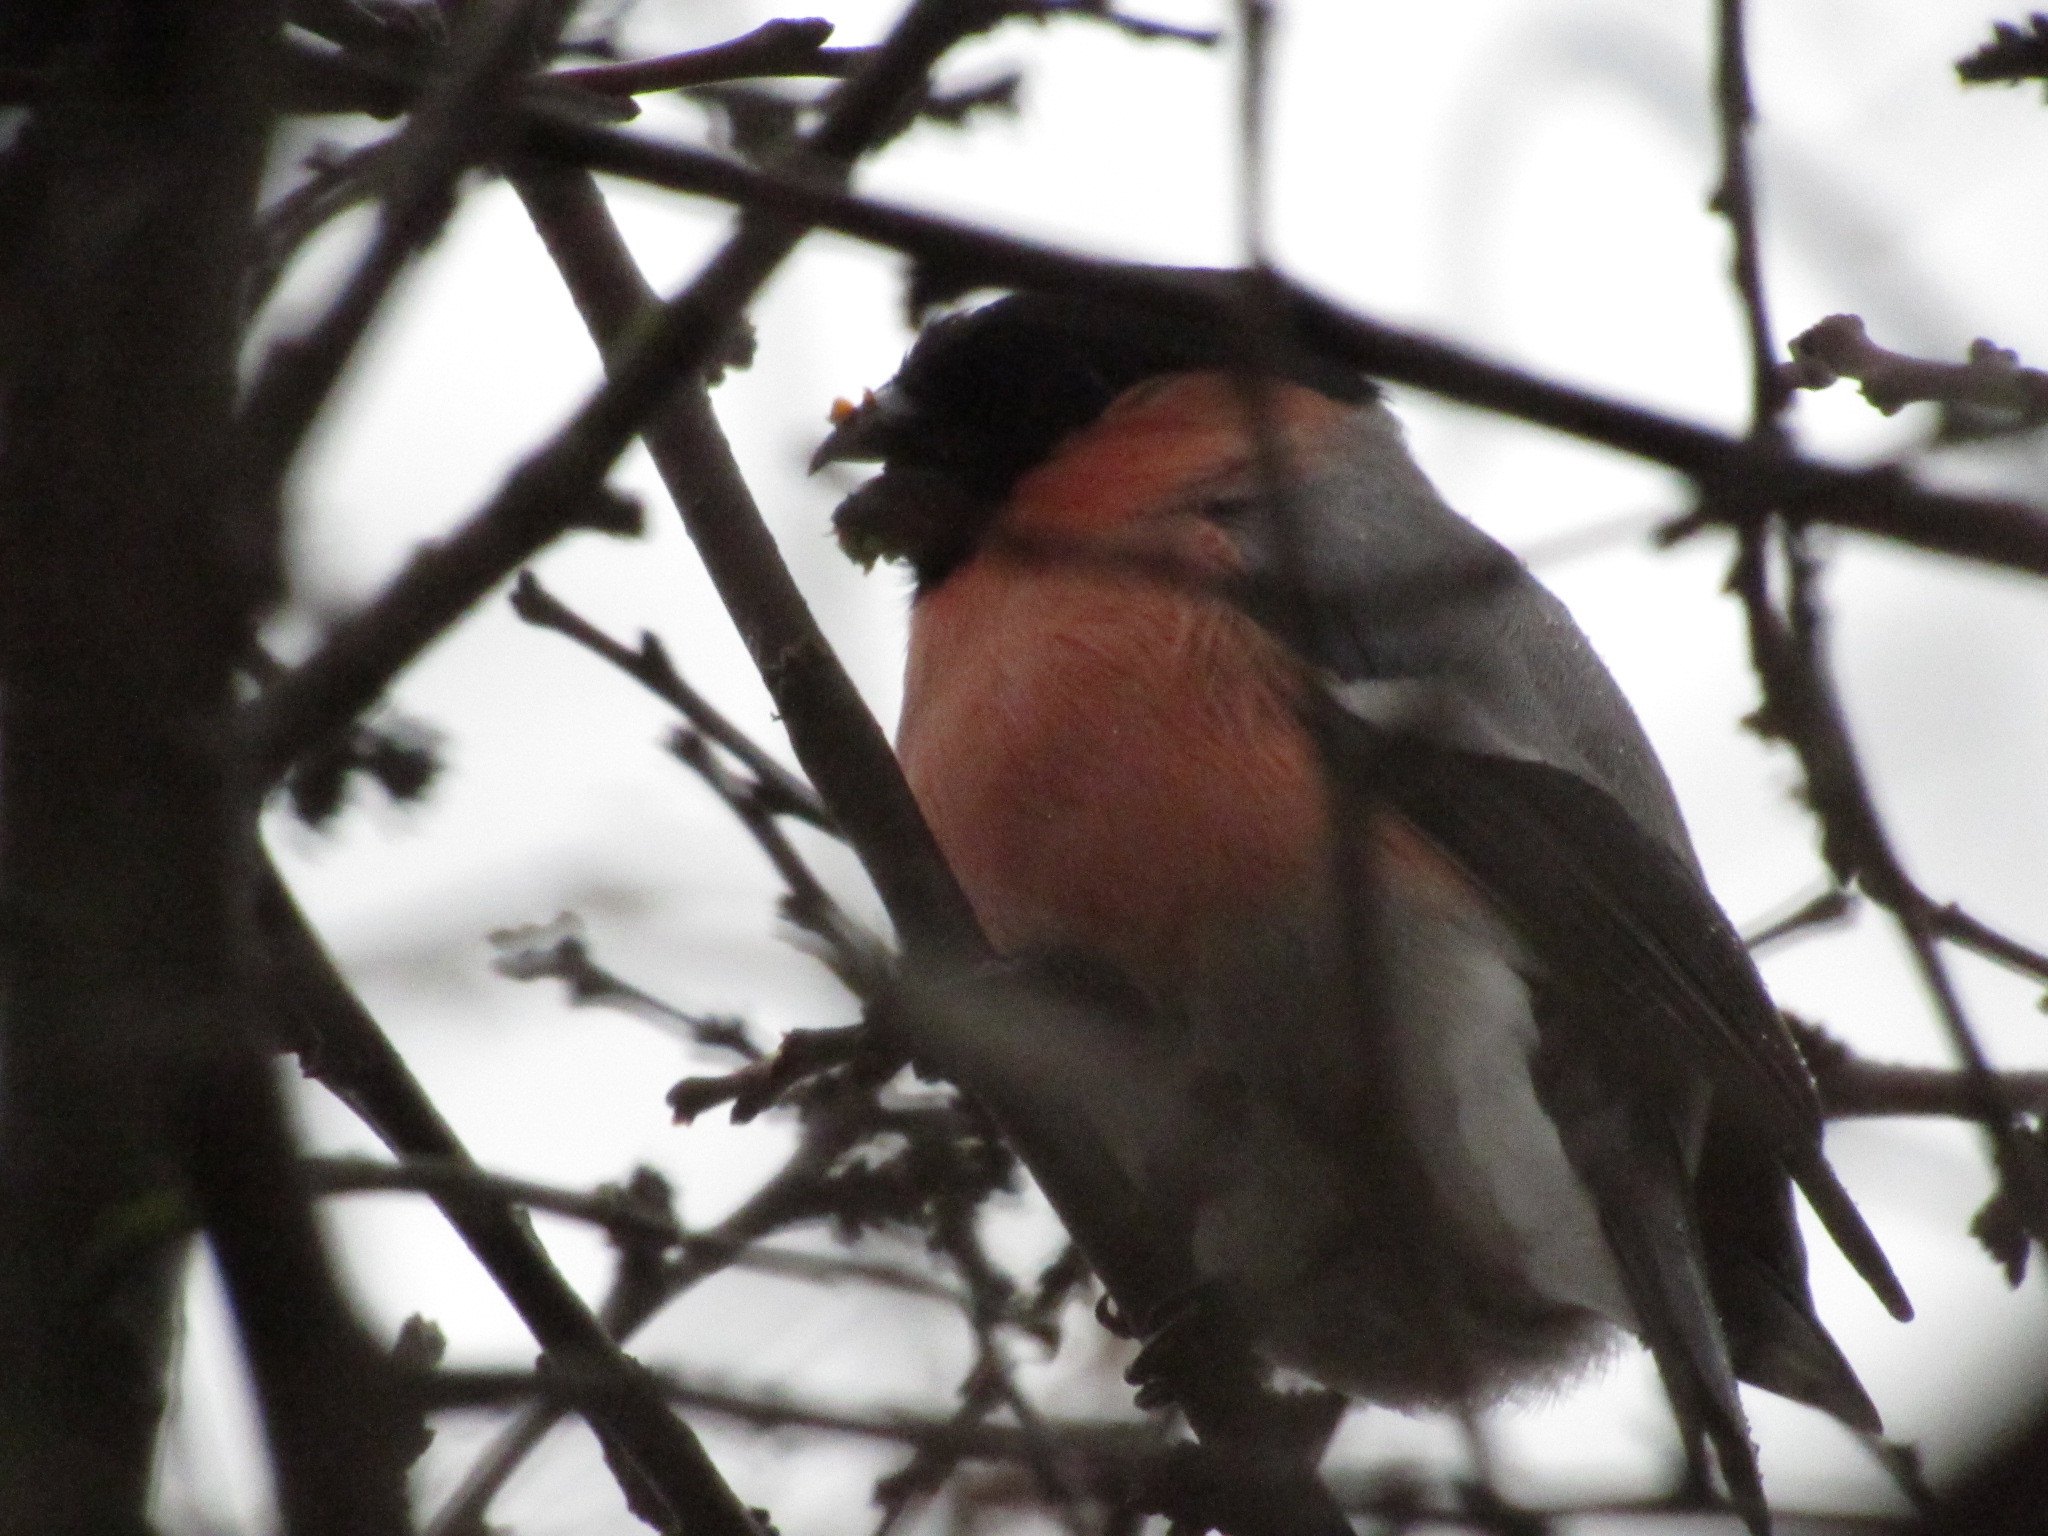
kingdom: Animalia
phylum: Chordata
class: Aves
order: Passeriformes
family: Fringillidae
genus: Pyrrhula
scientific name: Pyrrhula pyrrhula
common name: Eurasian bullfinch
